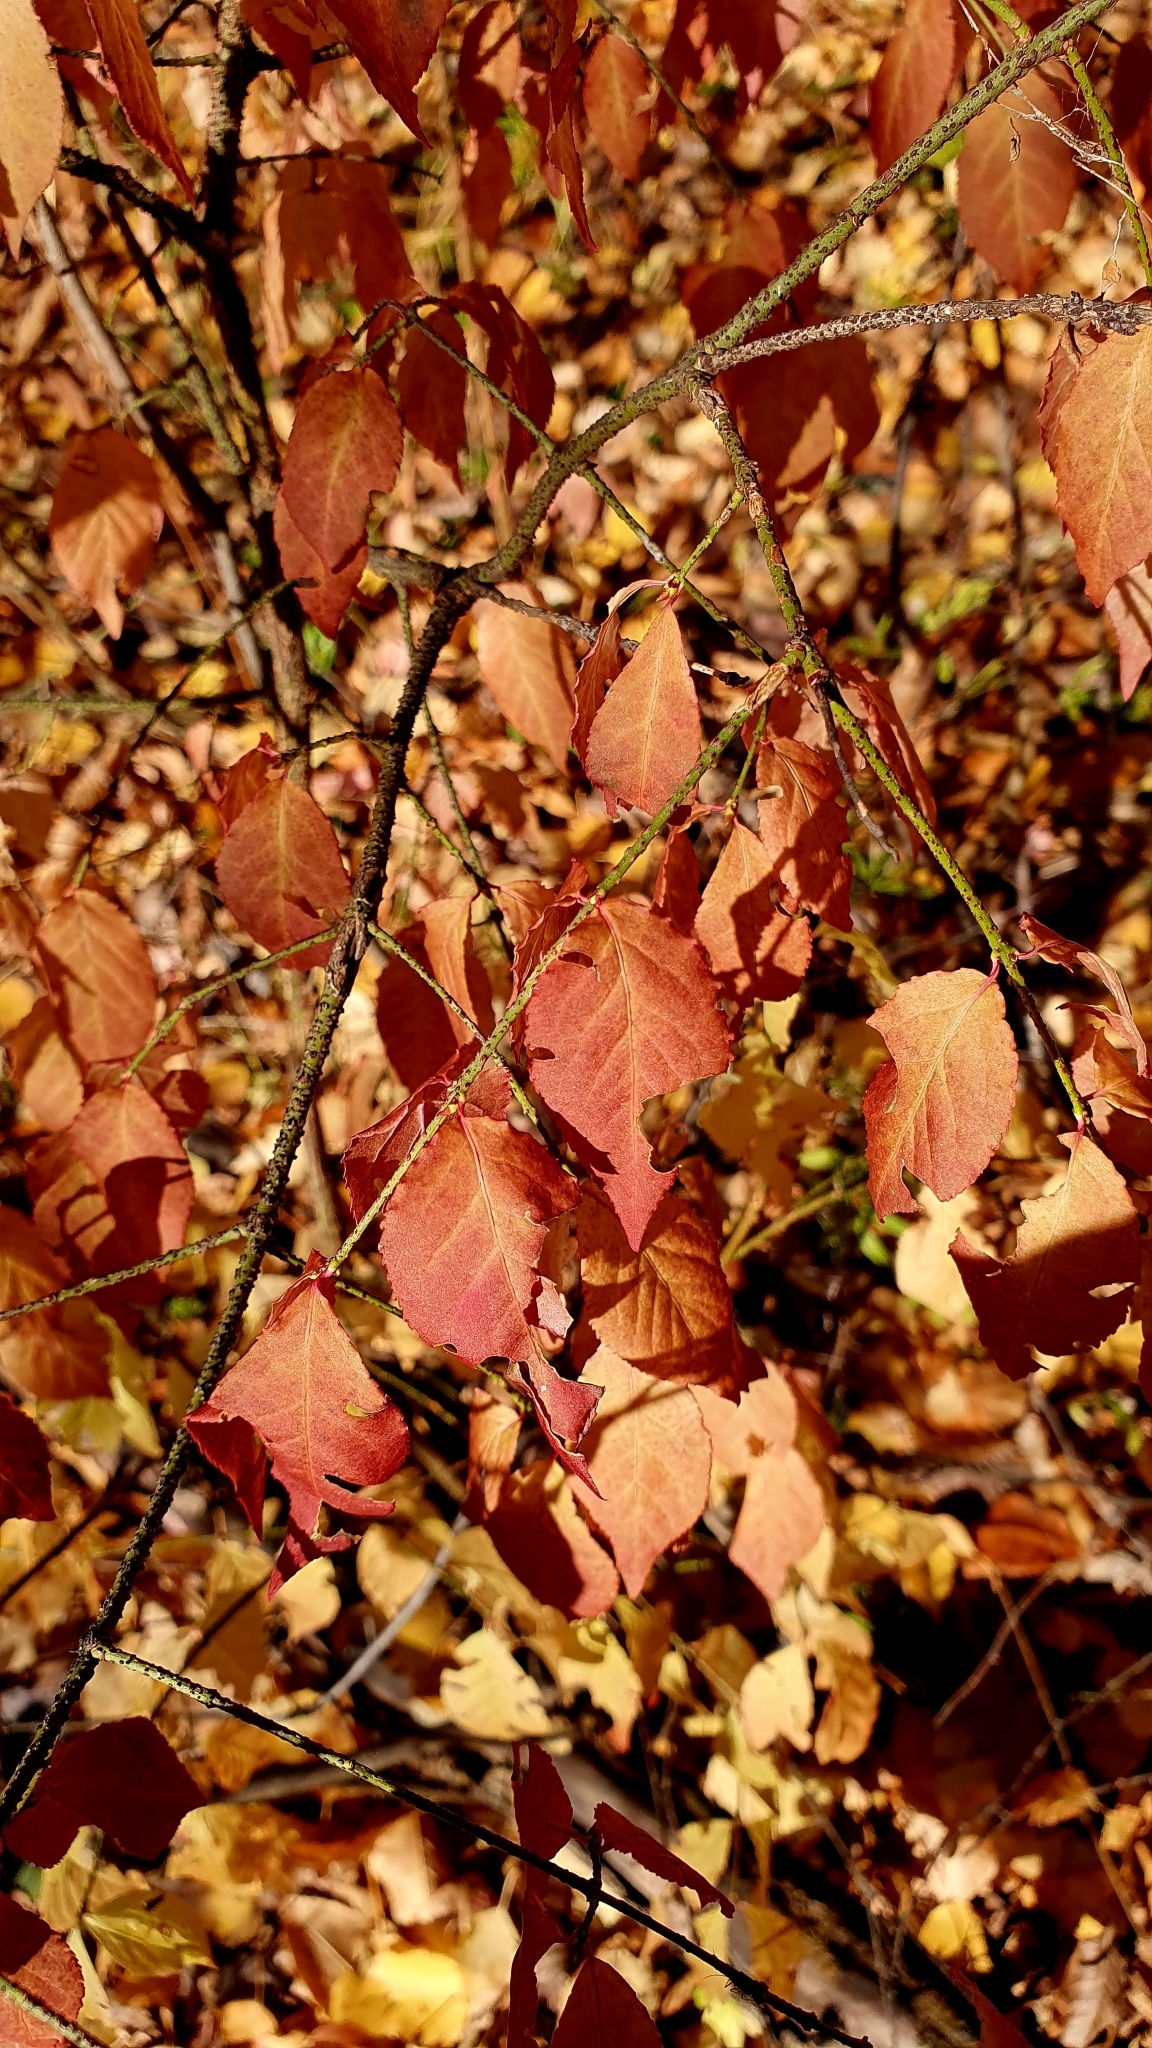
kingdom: Plantae
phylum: Tracheophyta
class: Magnoliopsida
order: Celastrales
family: Celastraceae
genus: Euonymus
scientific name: Euonymus verrucosus
